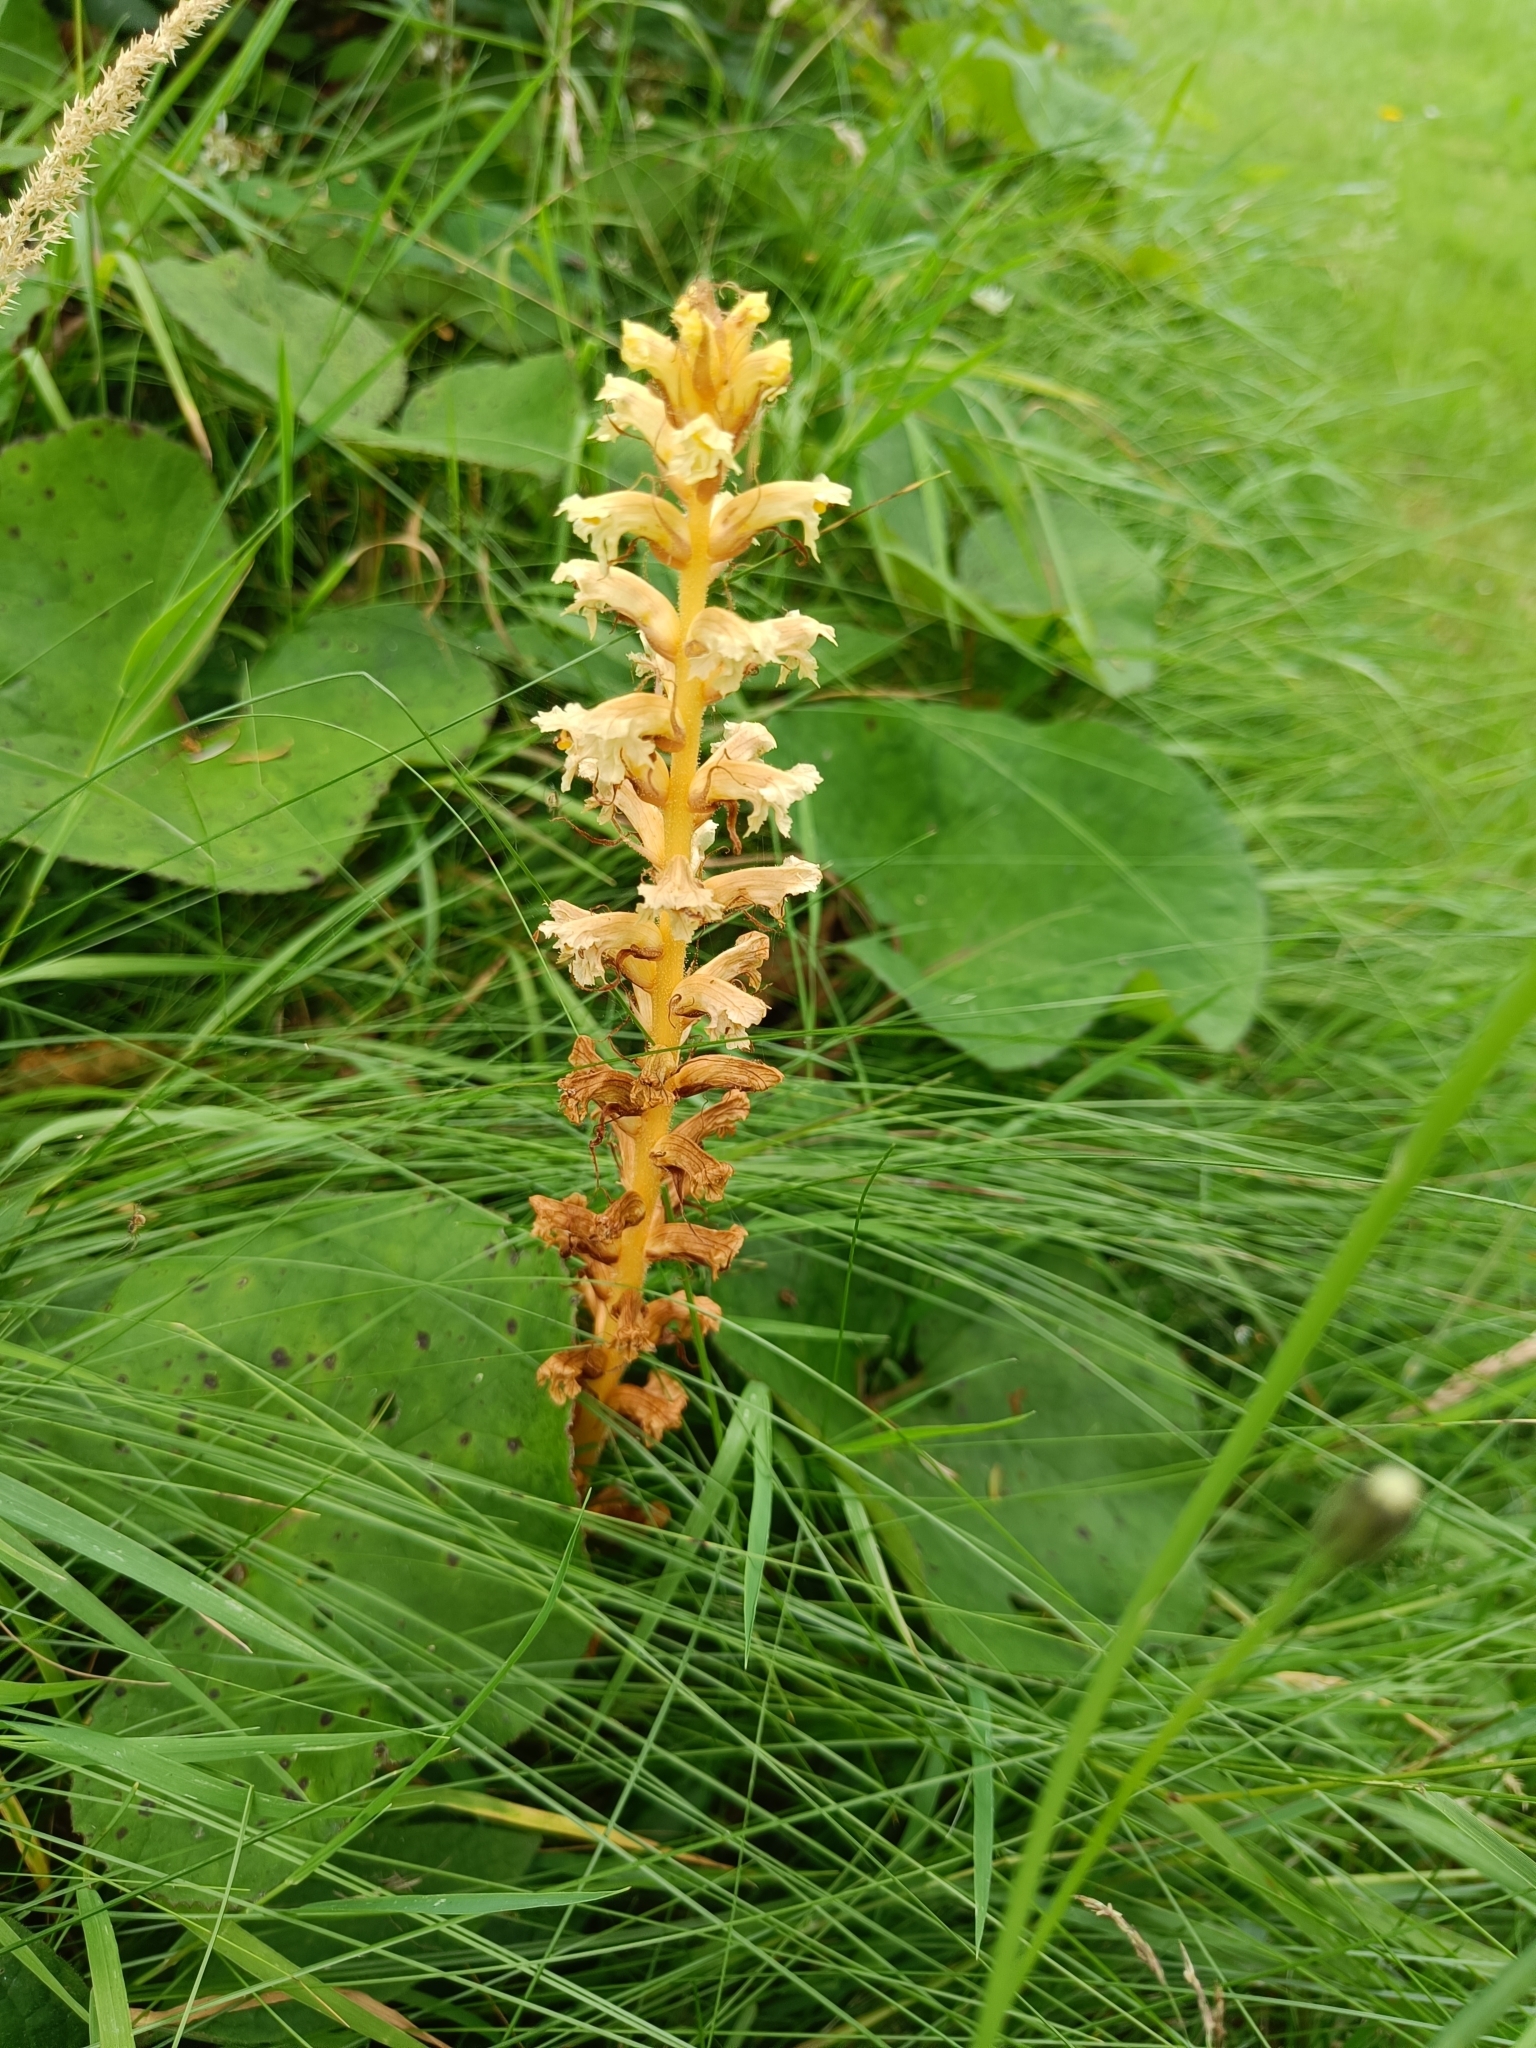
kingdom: Plantae
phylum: Tracheophyta
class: Magnoliopsida
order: Lamiales
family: Orobanchaceae
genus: Orobanche
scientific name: Orobanche hederae
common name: Ivy broomrape
